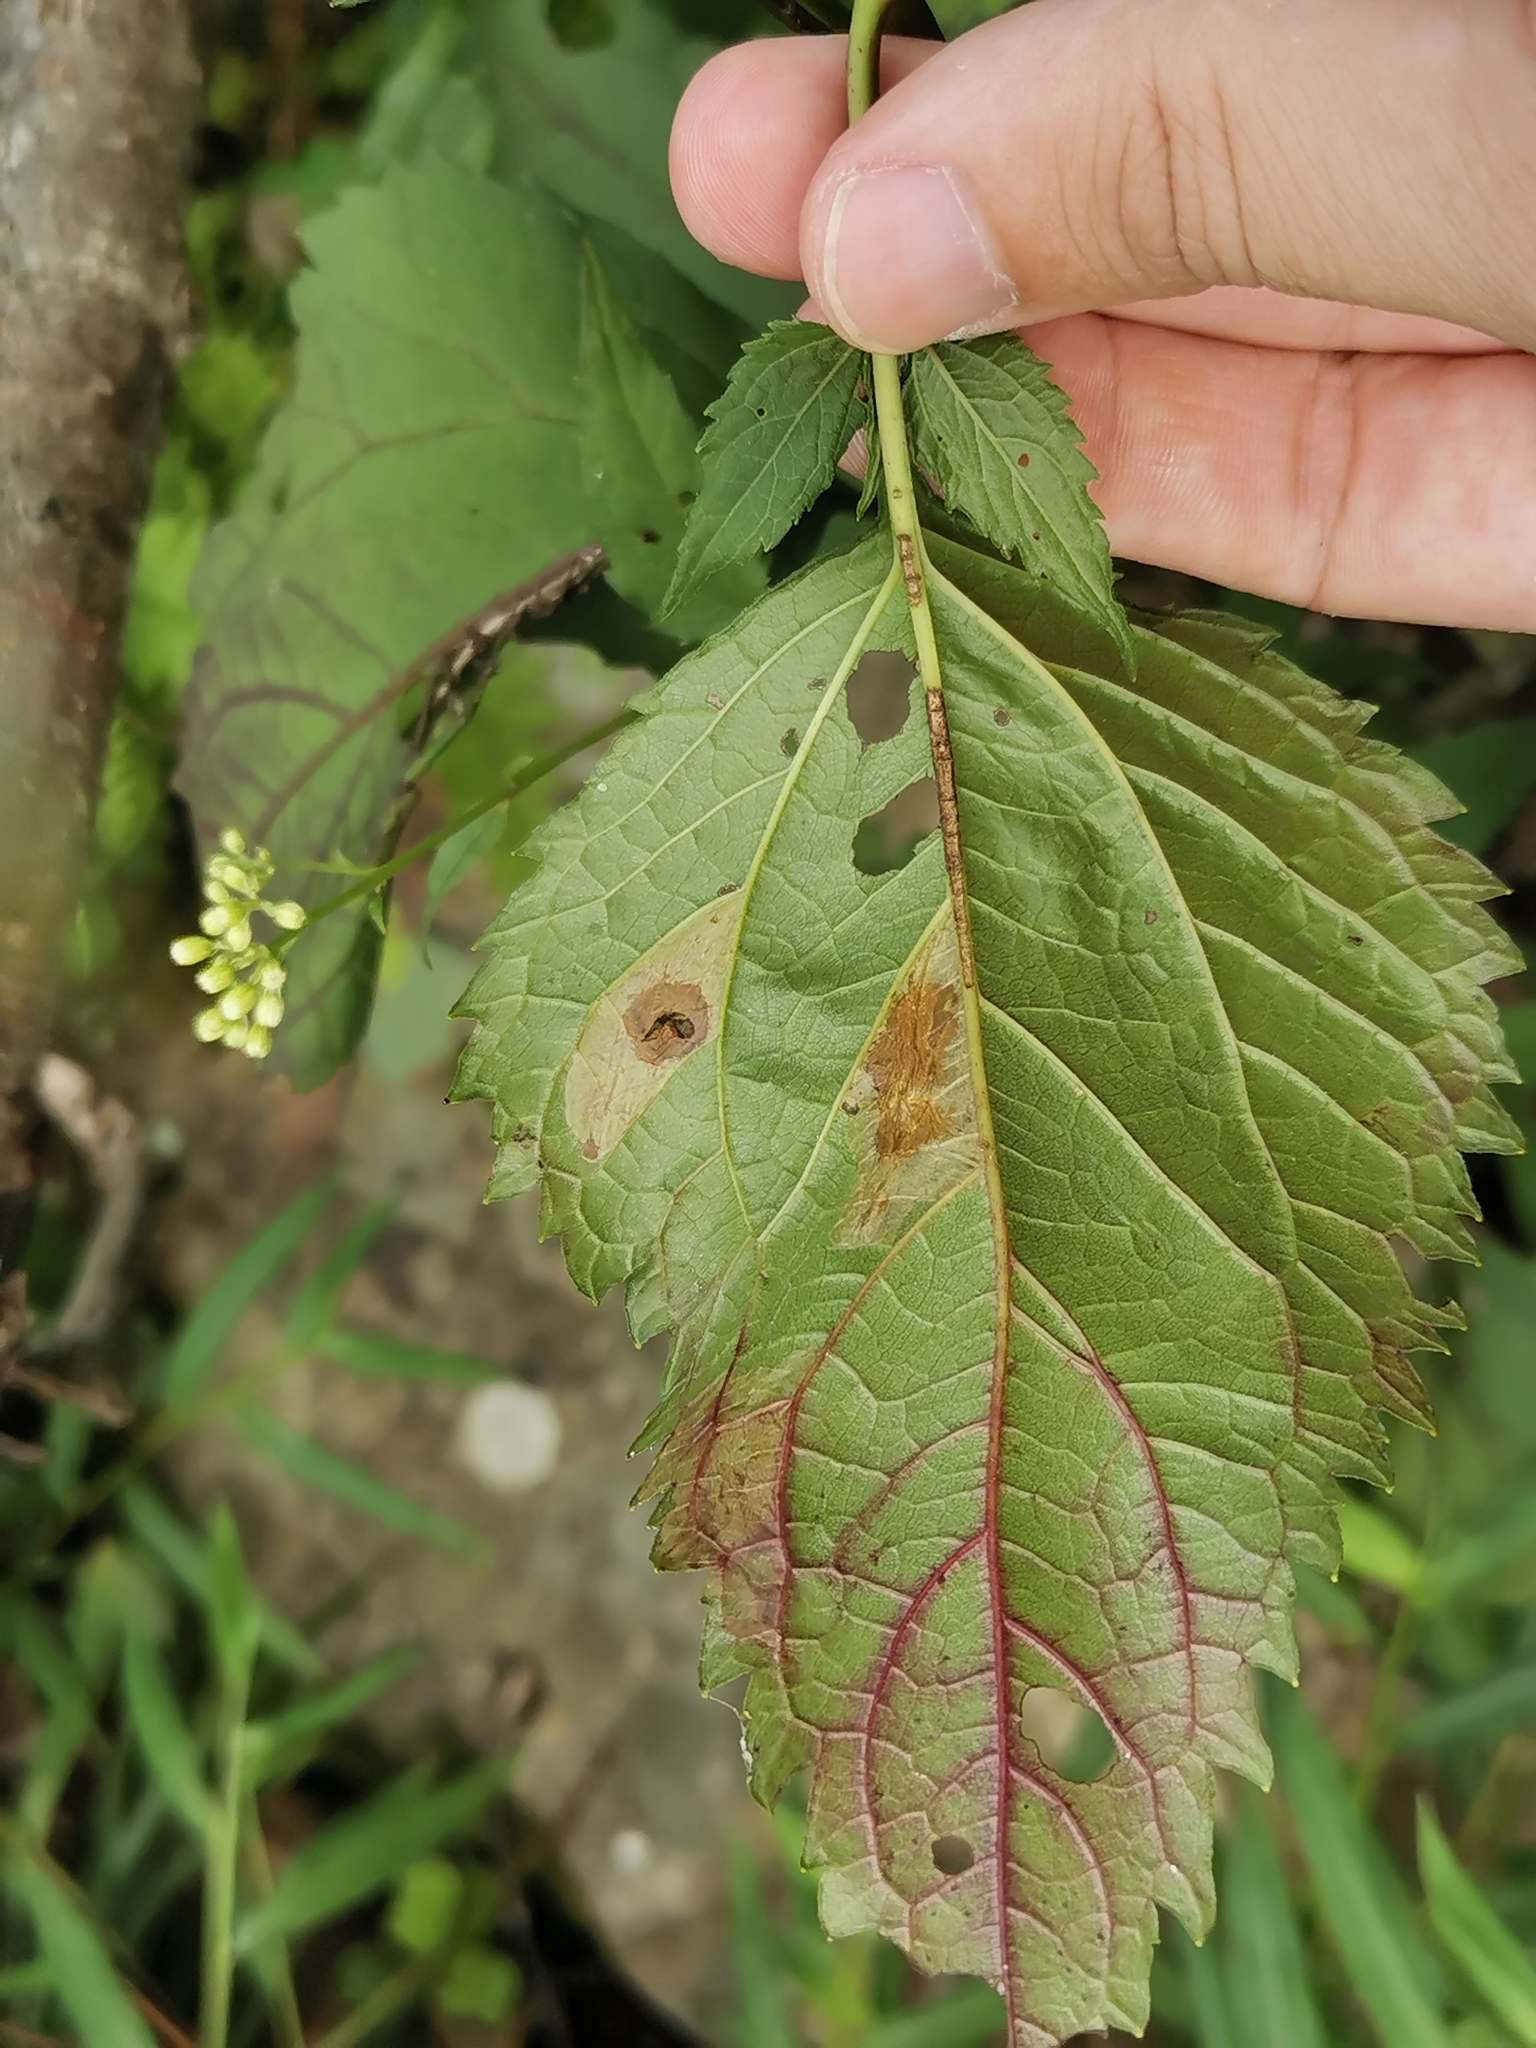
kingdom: Animalia
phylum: Arthropoda
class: Insecta
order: Lepidoptera
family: Gracillariidae
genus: Leucospilapteryx
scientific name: Leucospilapteryx venustella
